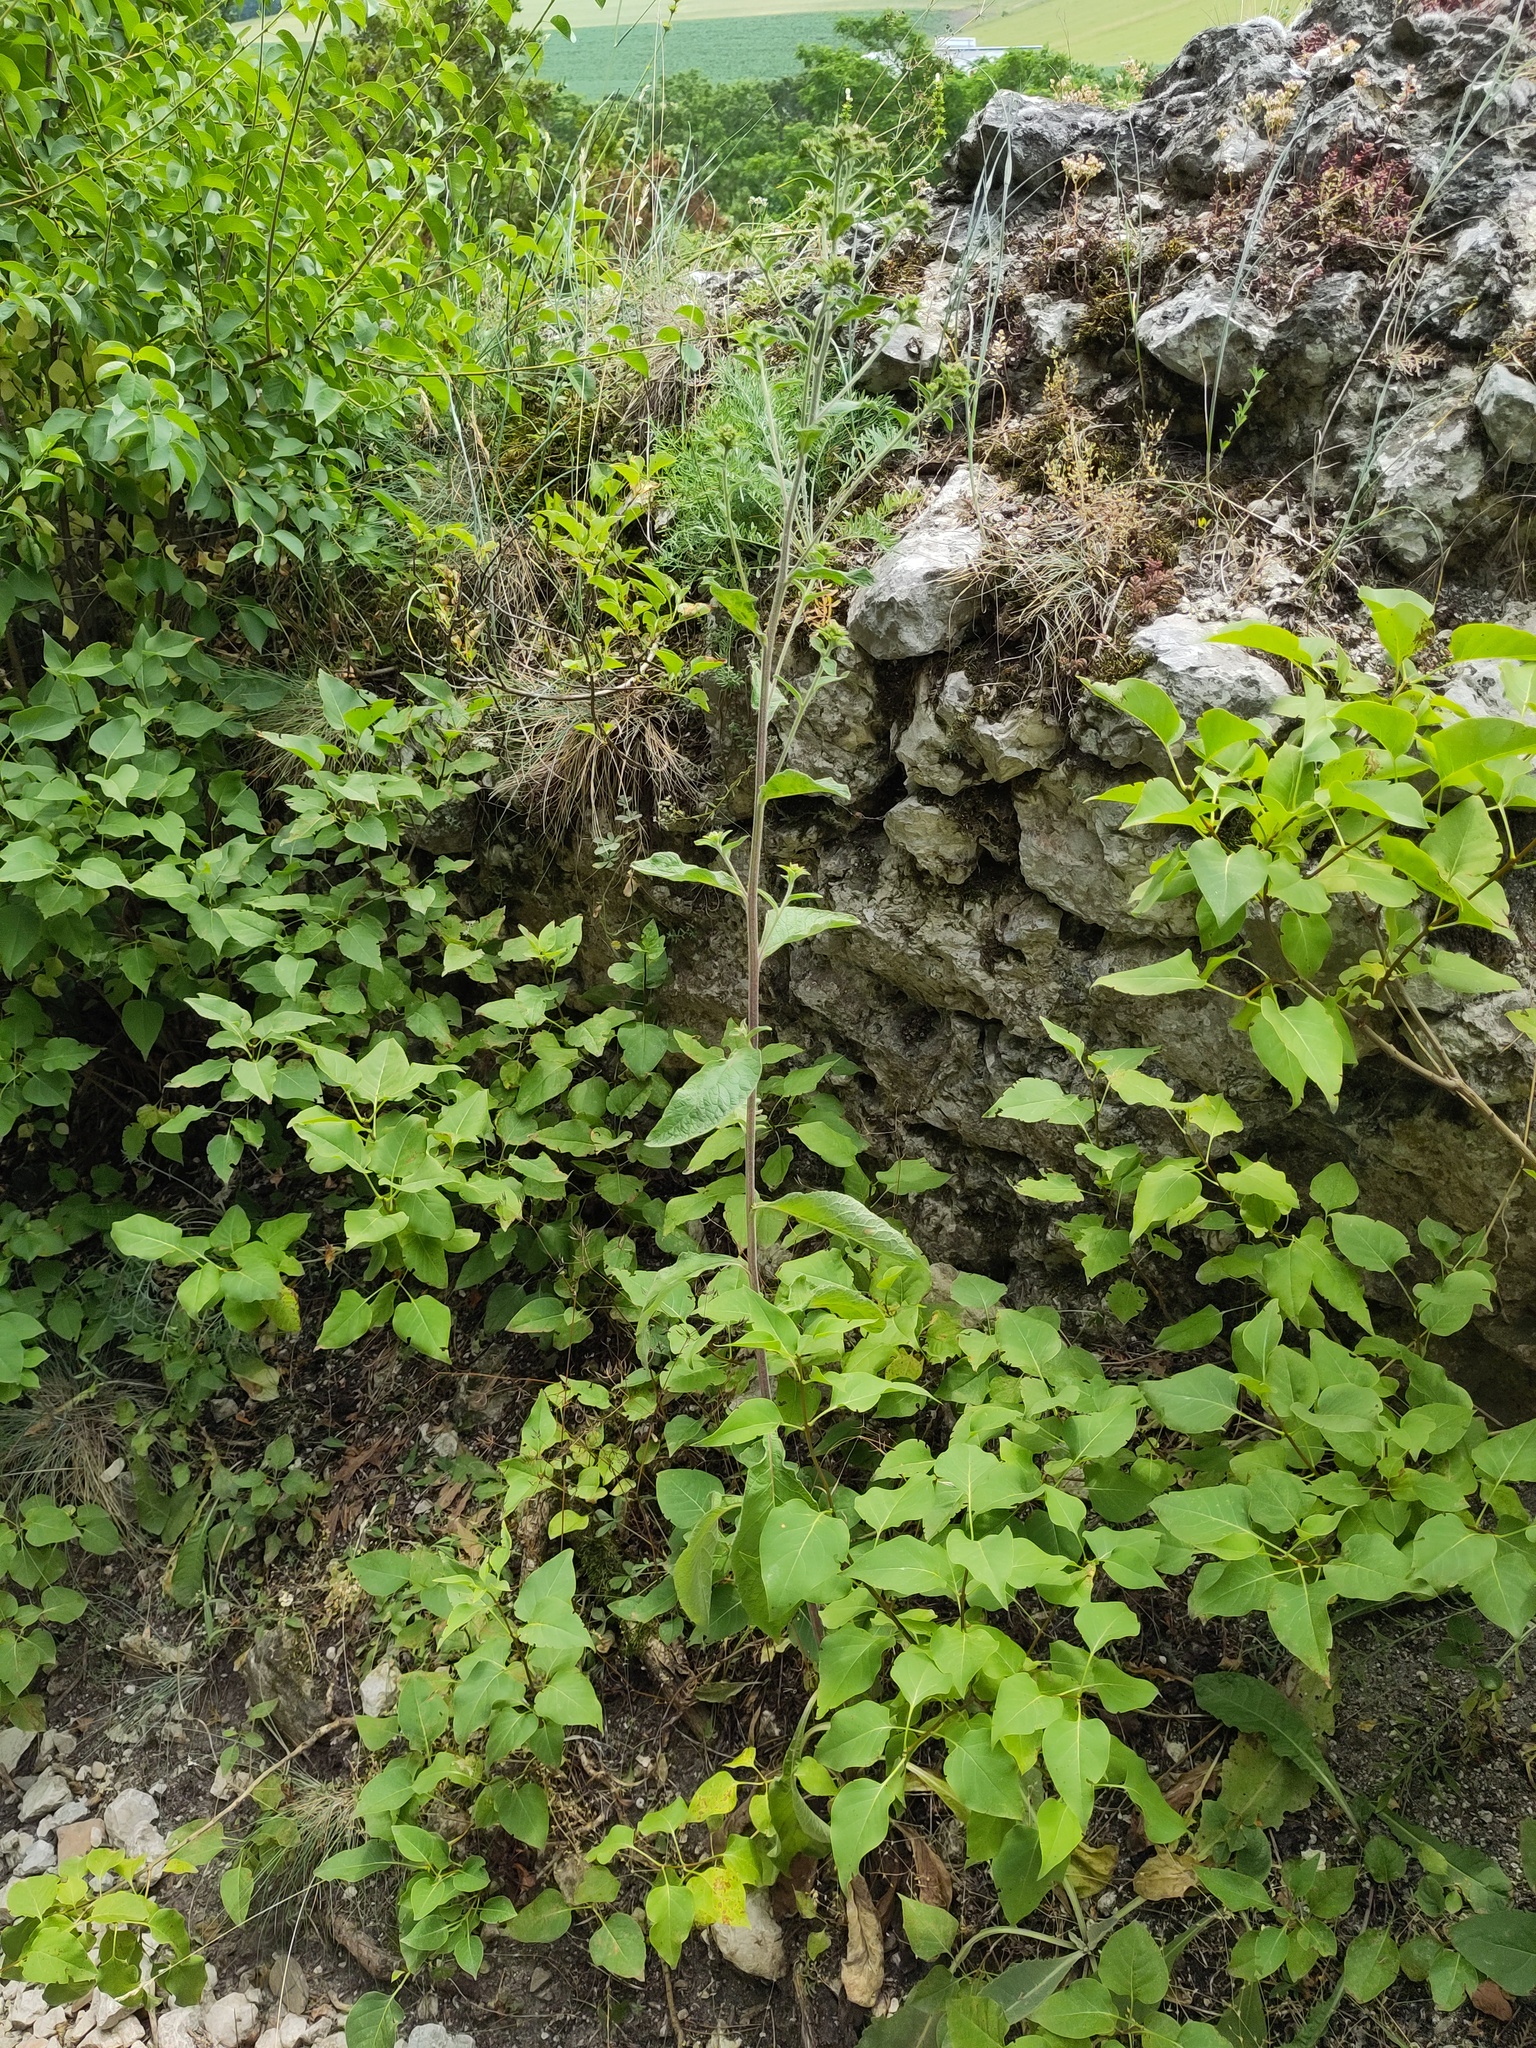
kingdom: Plantae
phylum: Tracheophyta
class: Magnoliopsida
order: Asterales
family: Asteraceae
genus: Pentanema
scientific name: Pentanema squarrosum
